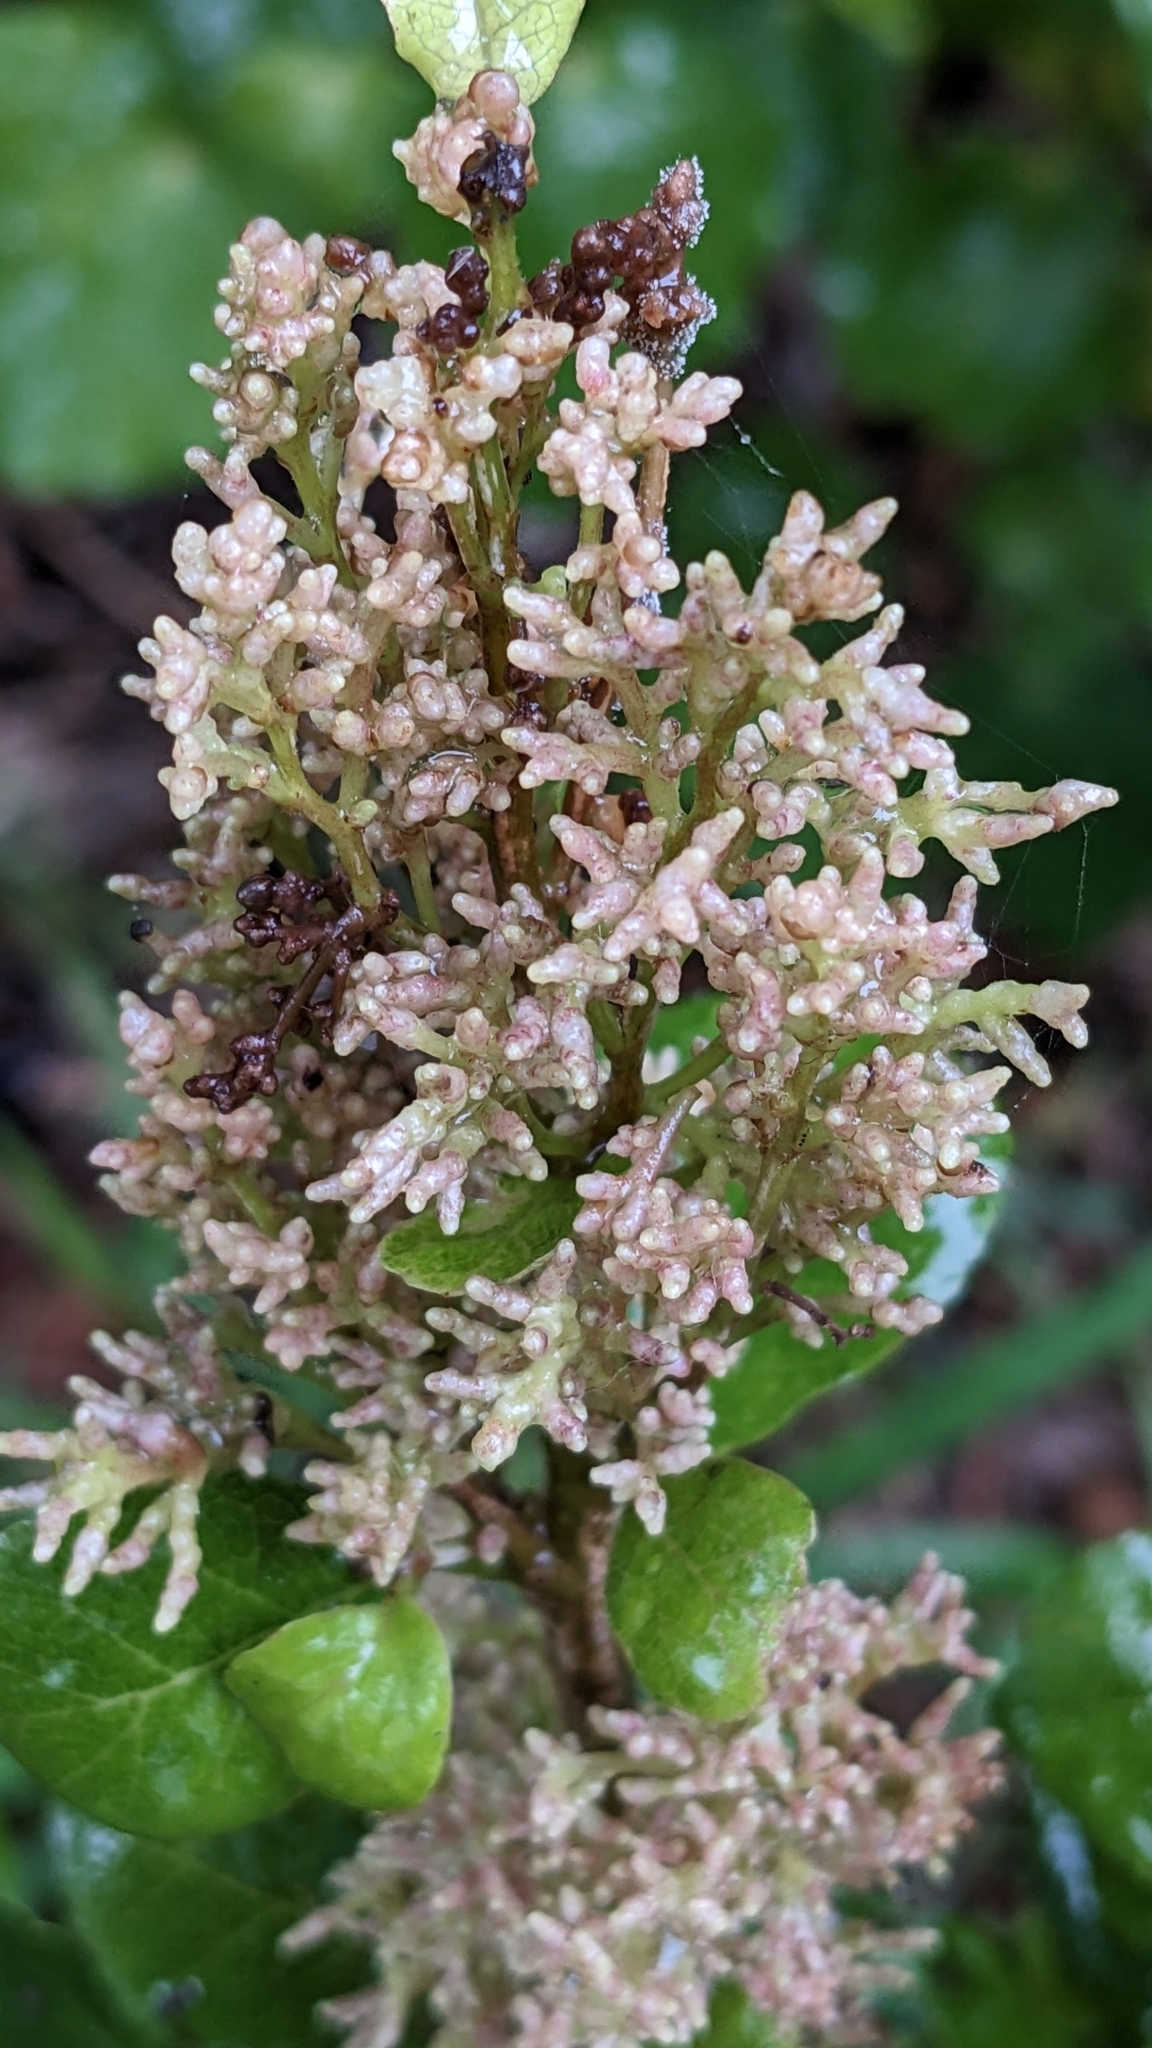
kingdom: Plantae
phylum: Tracheophyta
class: Magnoliopsida
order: Rosales
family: Moraceae
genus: Paratrophis
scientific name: Paratrophis banksii
